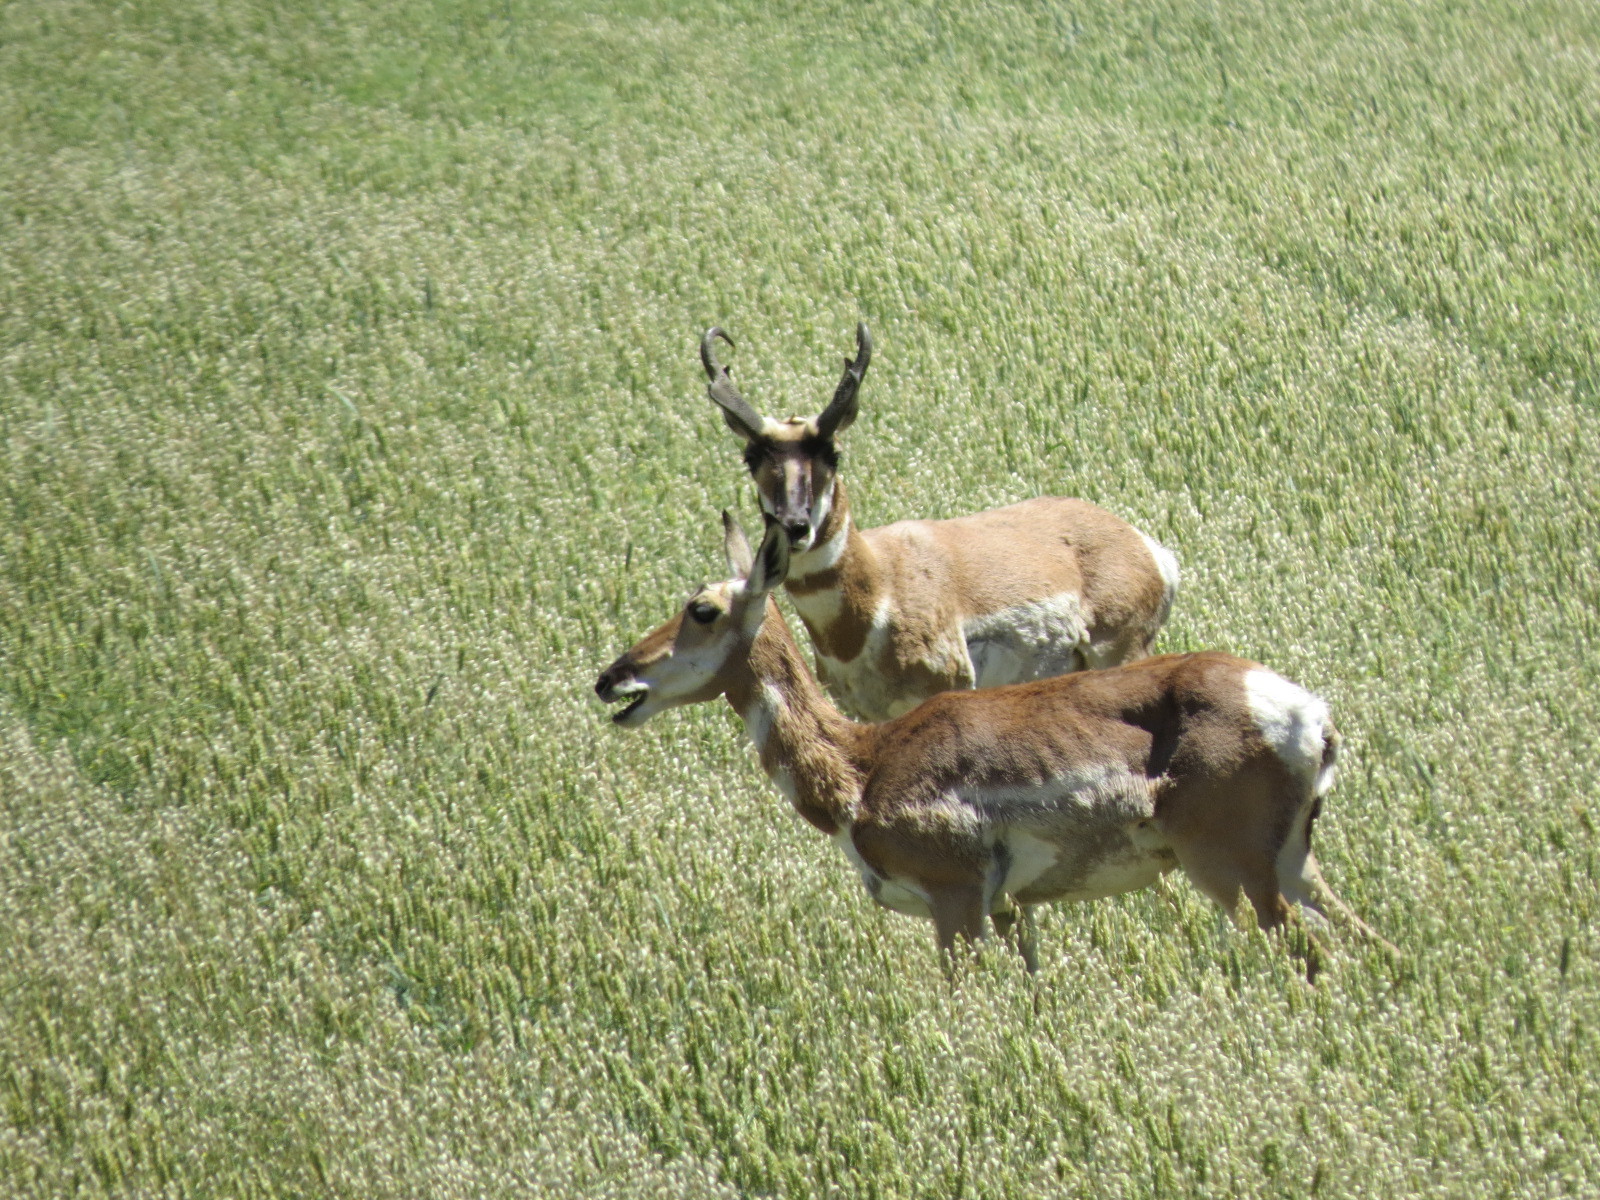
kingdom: Animalia
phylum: Chordata
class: Mammalia
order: Artiodactyla
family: Antilocapridae
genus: Antilocapra
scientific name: Antilocapra americana
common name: Pronghorn
